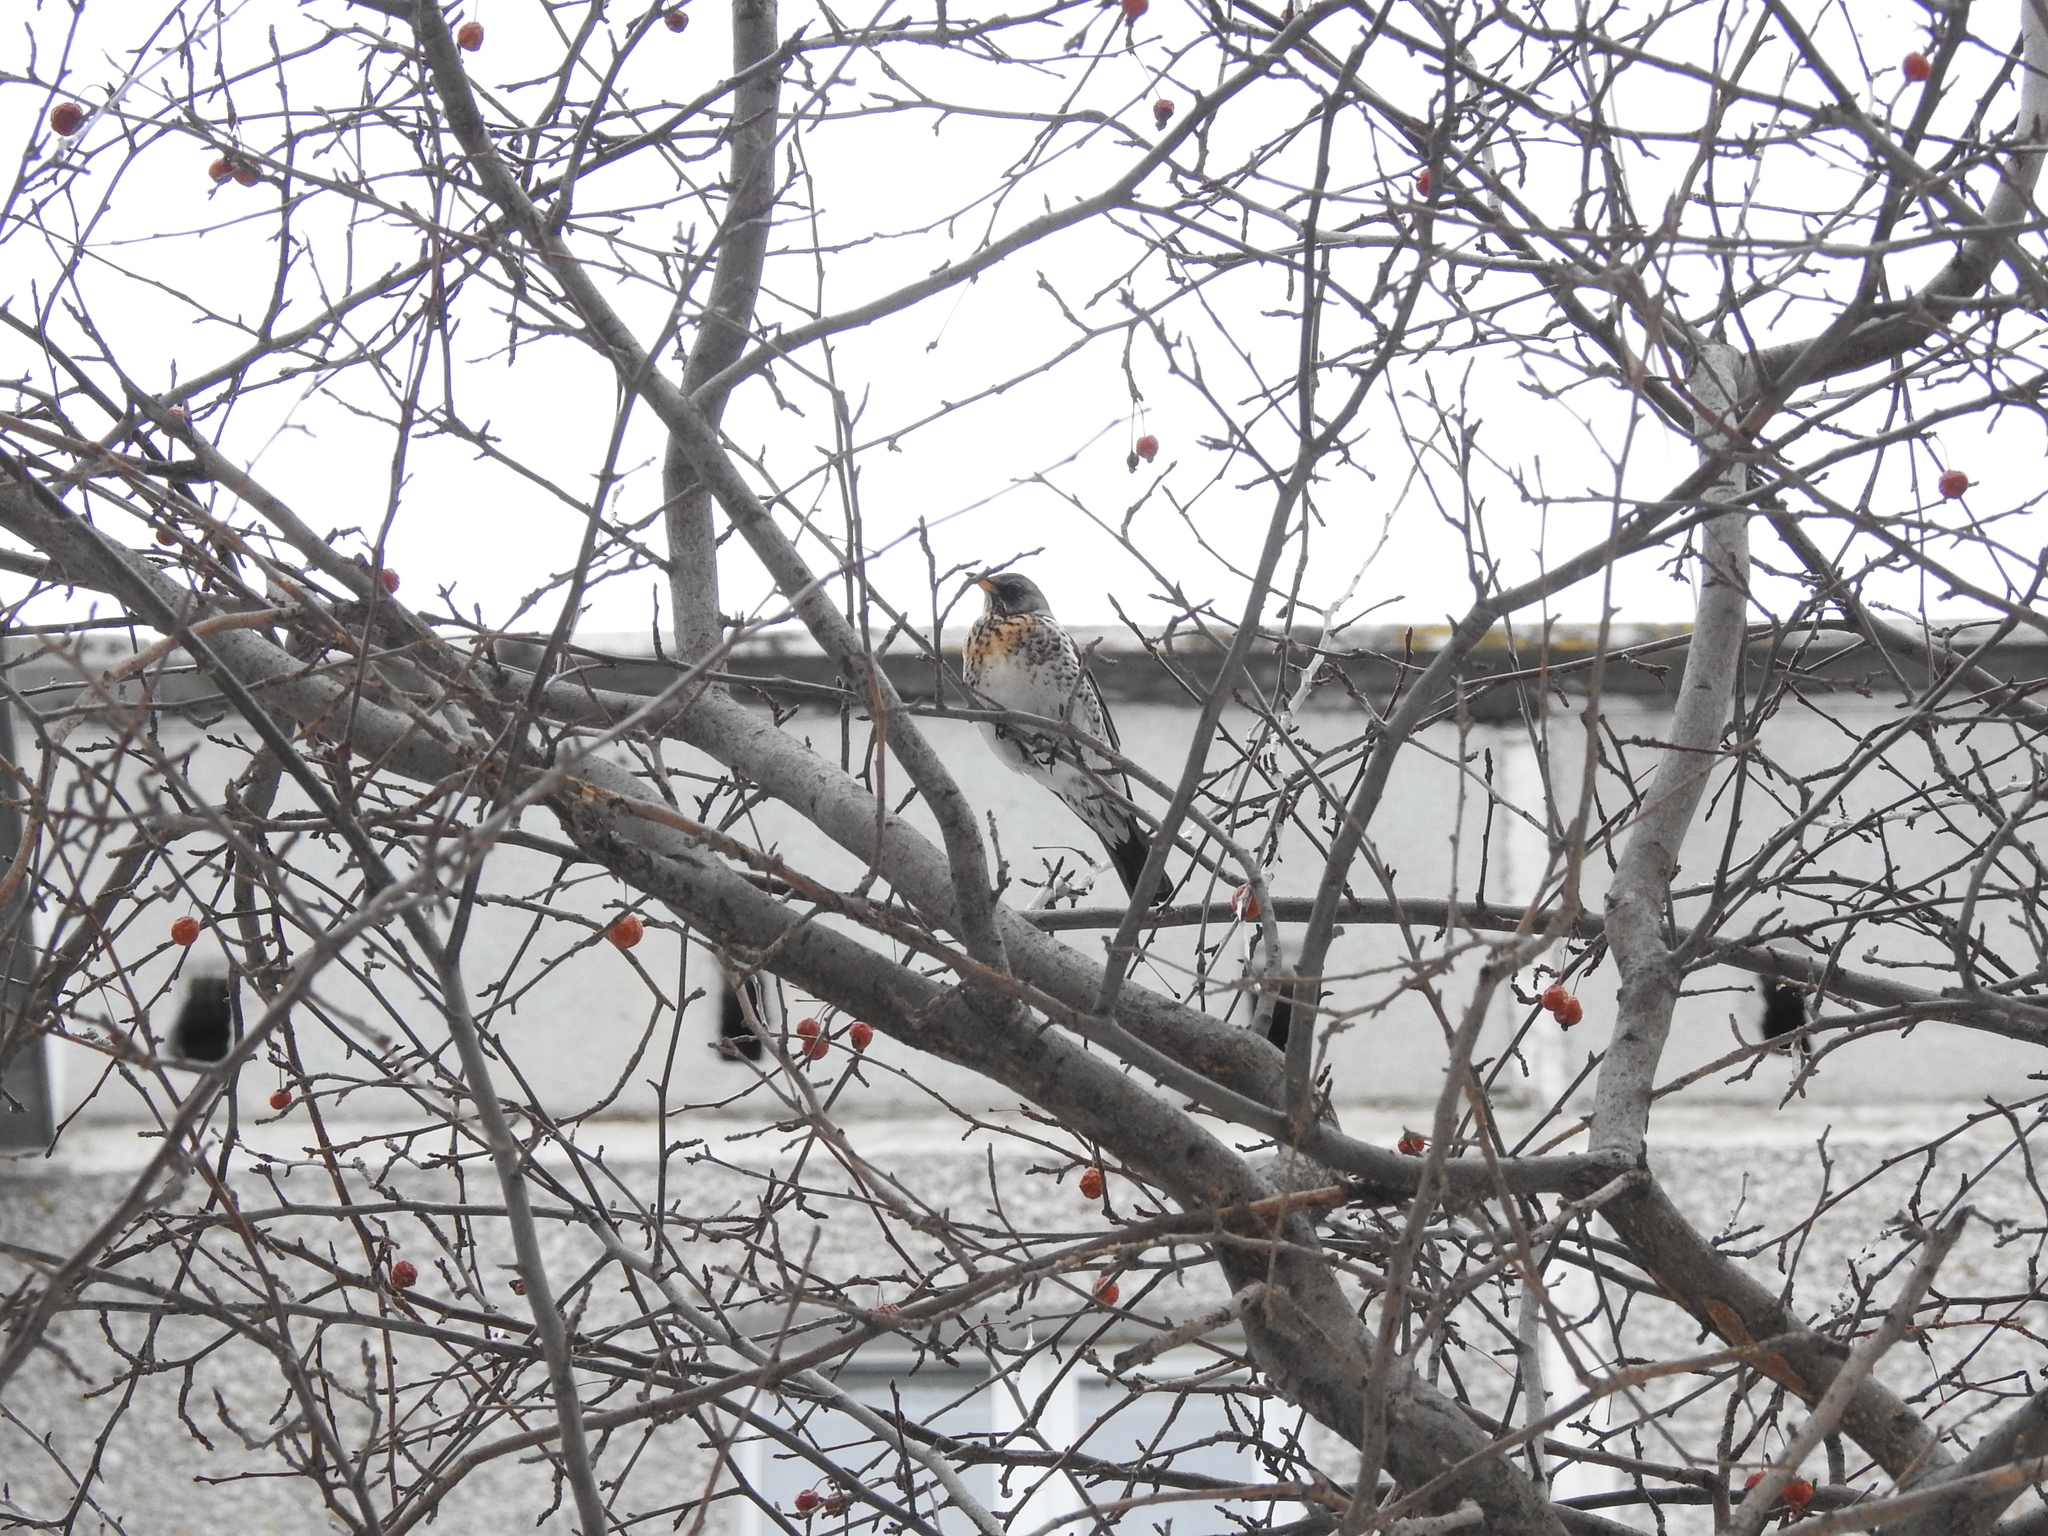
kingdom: Animalia
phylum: Chordata
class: Aves
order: Passeriformes
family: Turdidae
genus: Turdus
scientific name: Turdus pilaris
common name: Fieldfare
